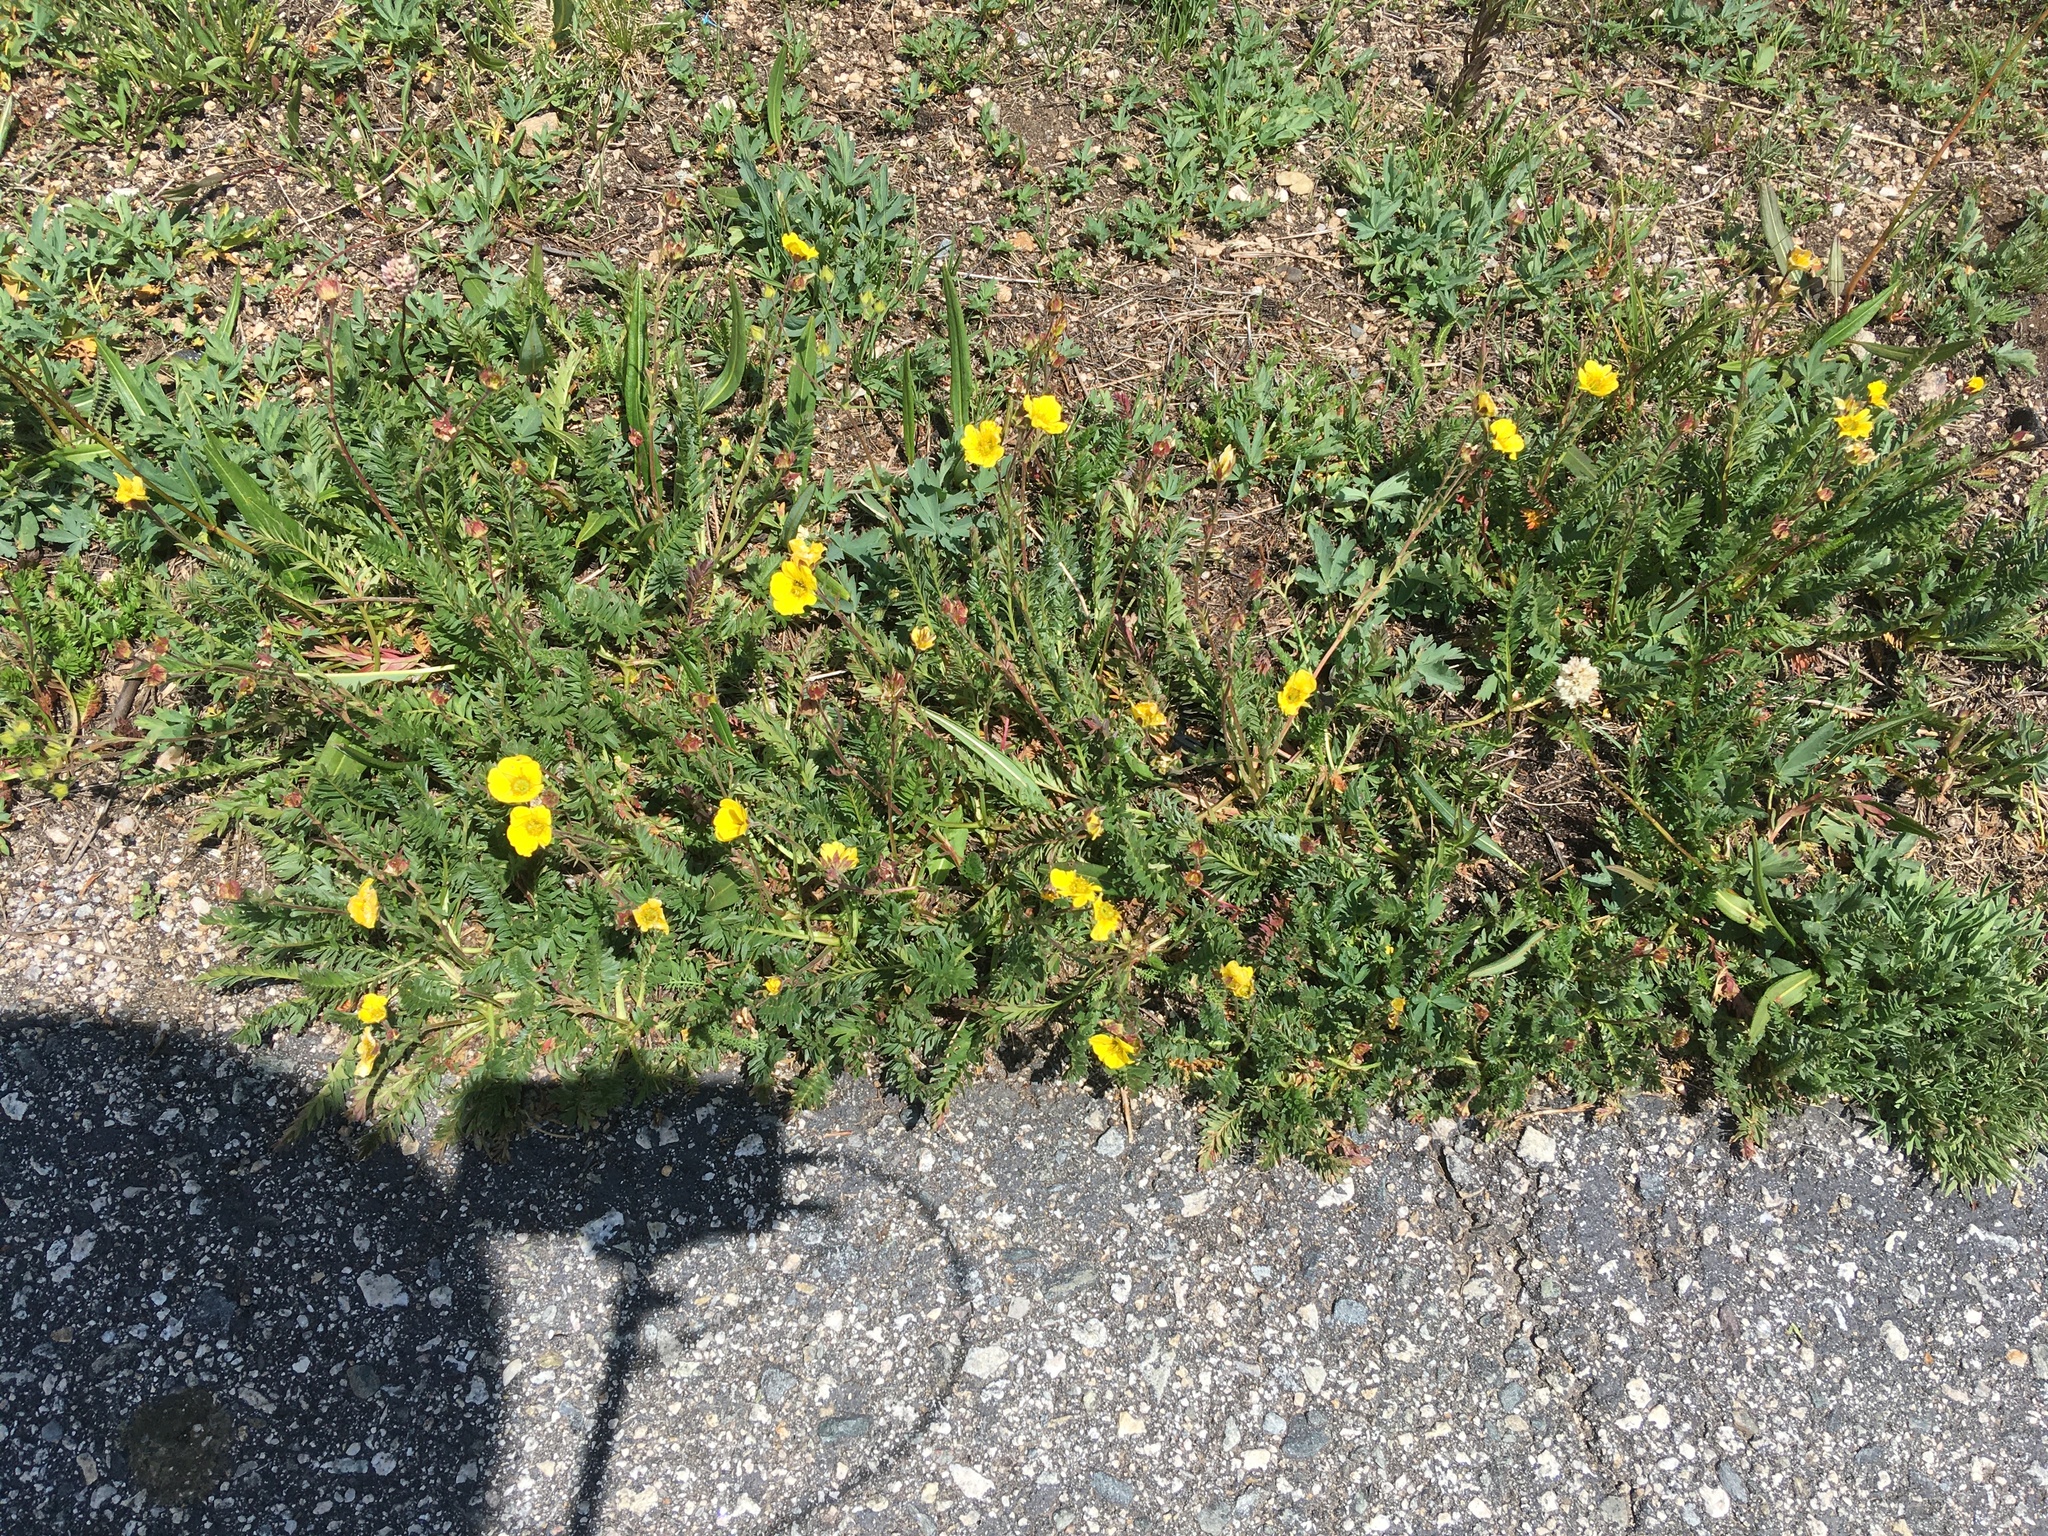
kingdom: Plantae
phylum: Tracheophyta
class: Magnoliopsida
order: Rosales
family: Rosaceae
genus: Geum
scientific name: Geum rossii
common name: Alpine avens
